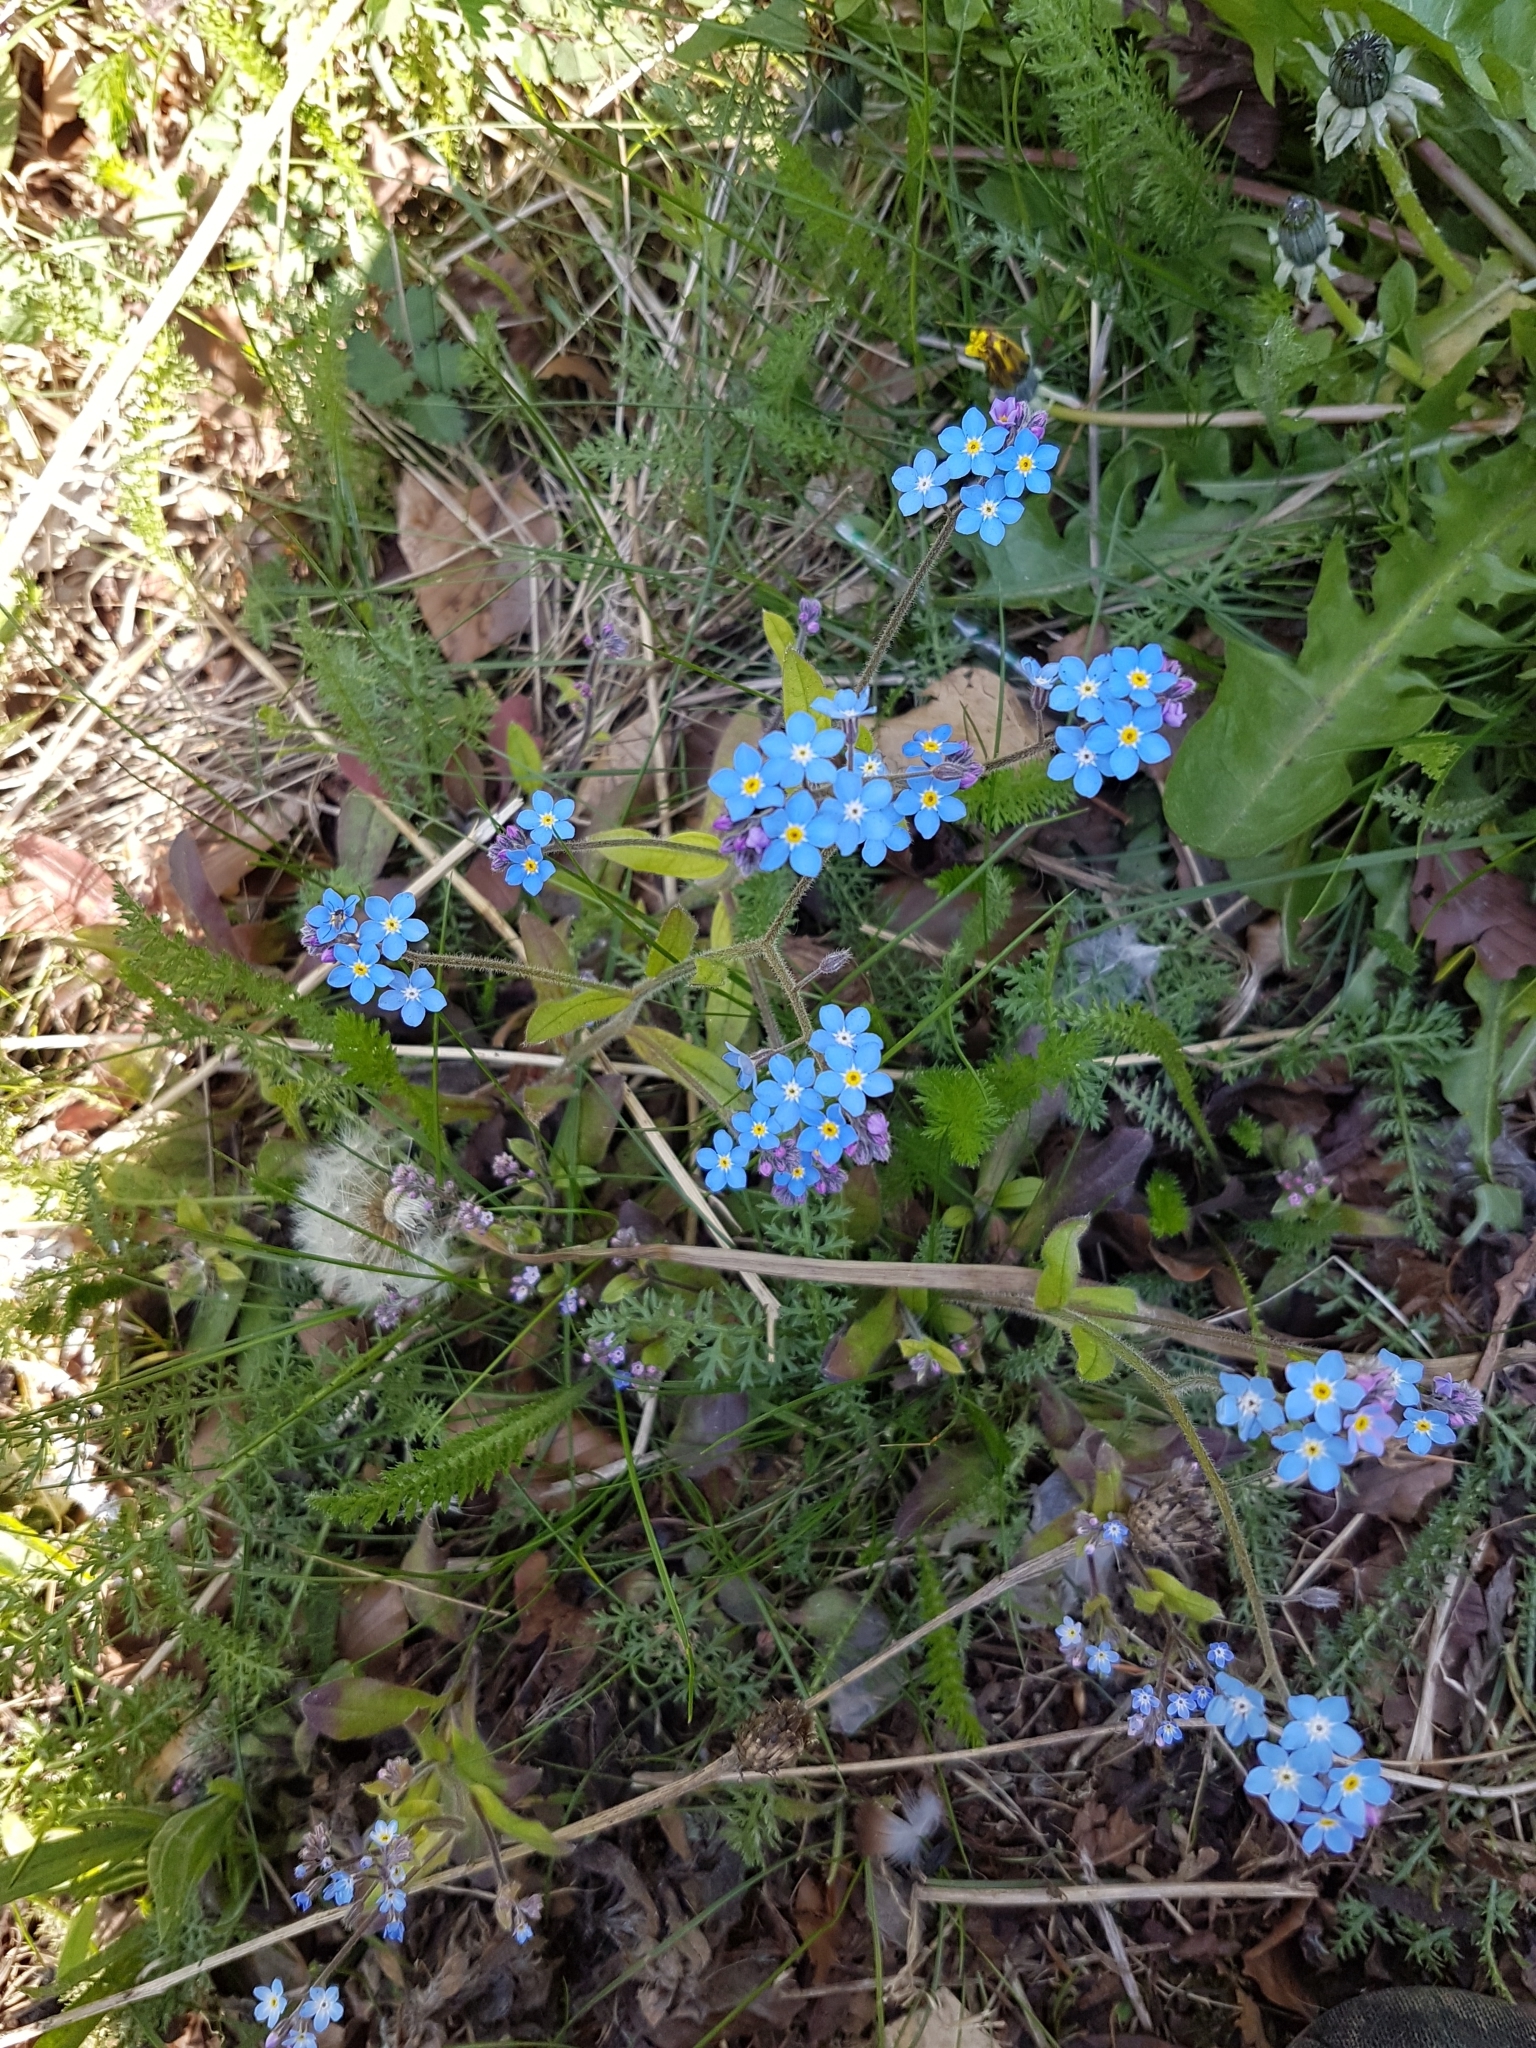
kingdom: Plantae
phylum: Tracheophyta
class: Magnoliopsida
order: Boraginales
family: Boraginaceae
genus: Myosotis
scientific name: Myosotis sylvatica
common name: Wood forget-me-not
